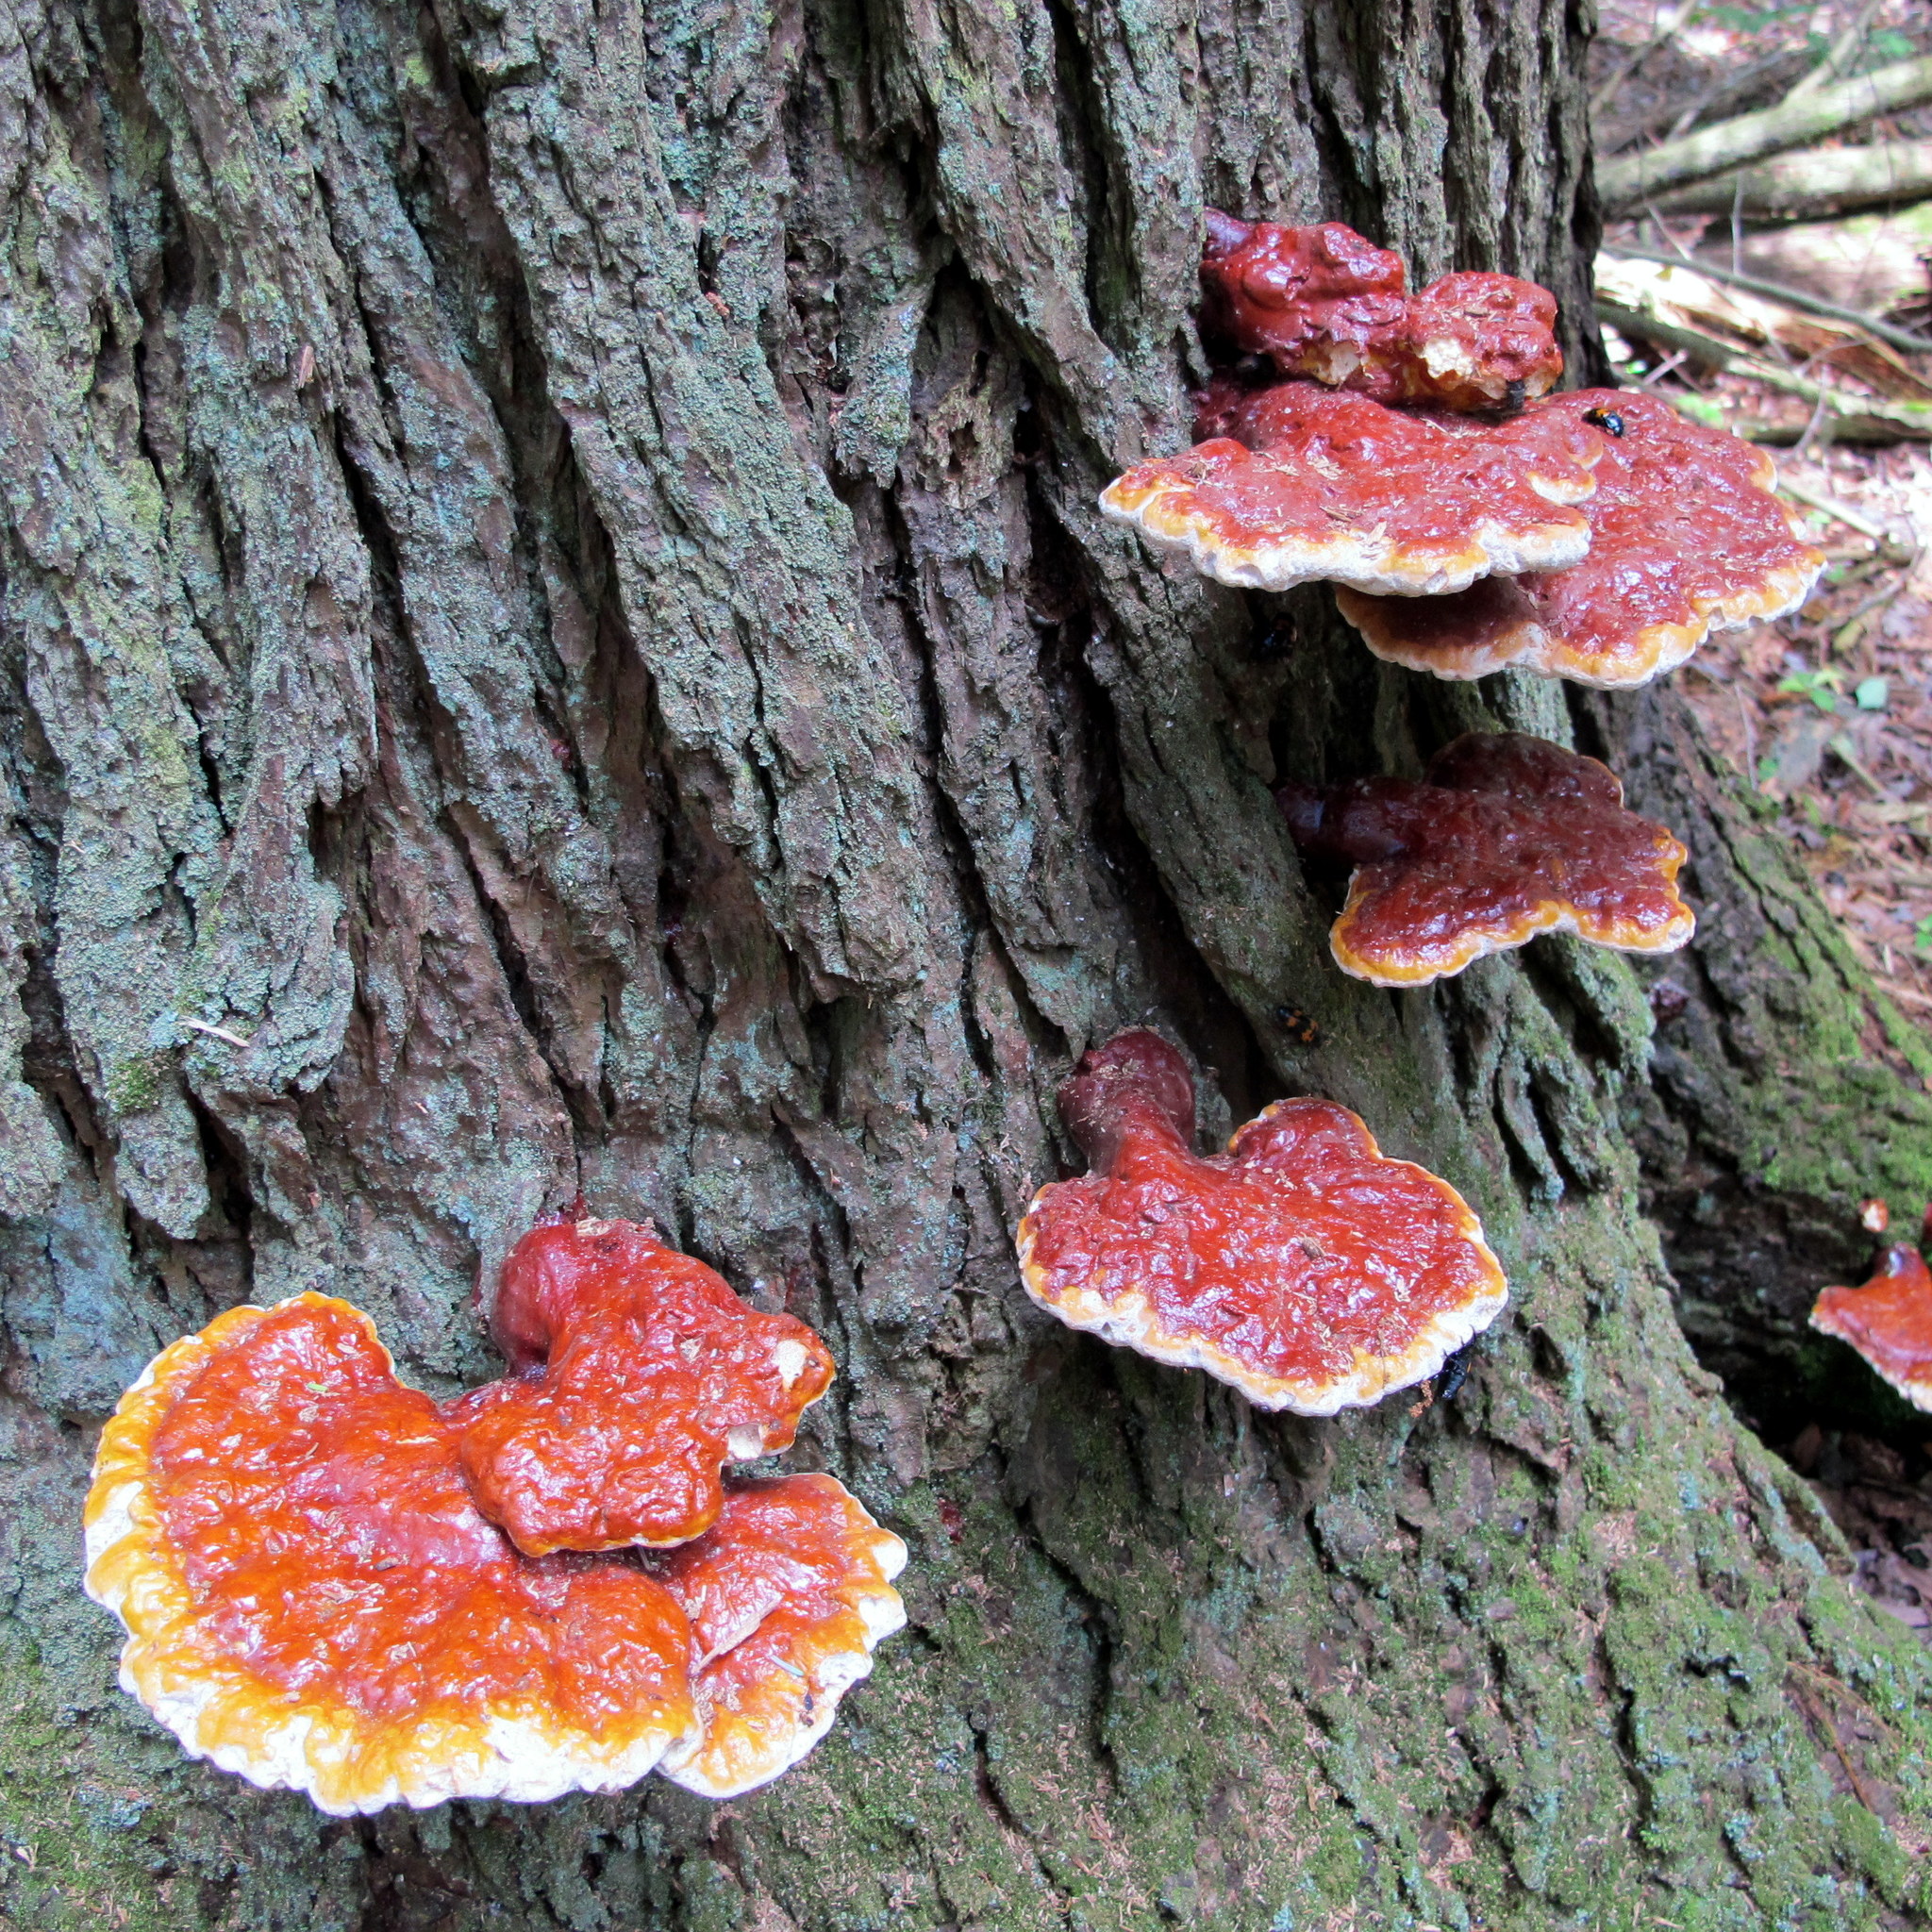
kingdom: Fungi
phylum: Basidiomycota
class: Agaricomycetes
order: Polyporales
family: Polyporaceae
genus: Ganoderma
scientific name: Ganoderma tsugae
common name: Hemlock varnish shelf
